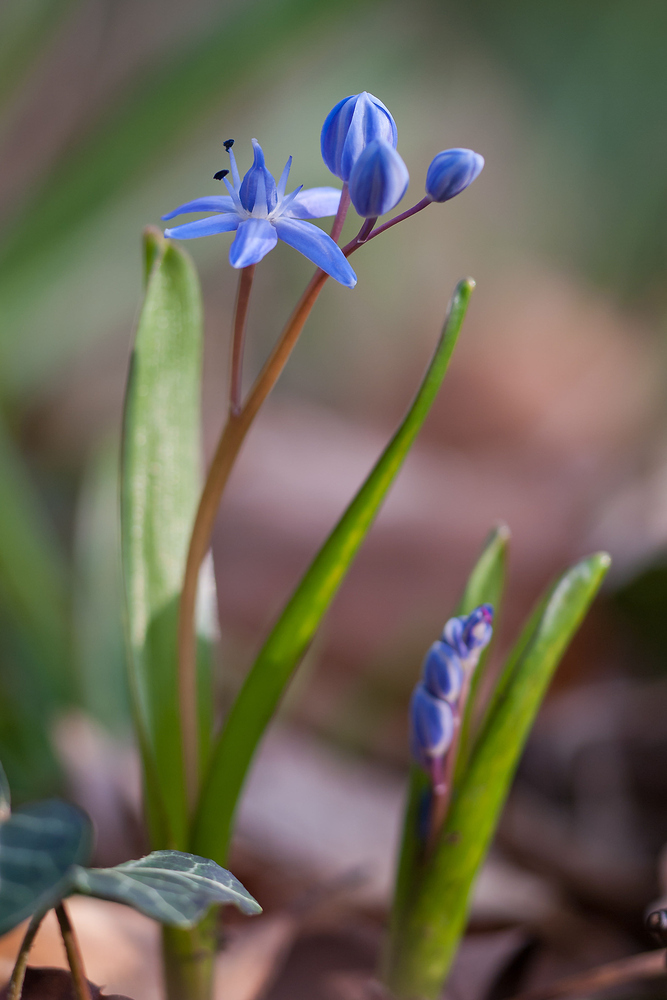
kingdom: Plantae
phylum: Tracheophyta
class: Liliopsida
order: Asparagales
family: Asparagaceae
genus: Scilla
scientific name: Scilla bifolia
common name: Alpine squill
